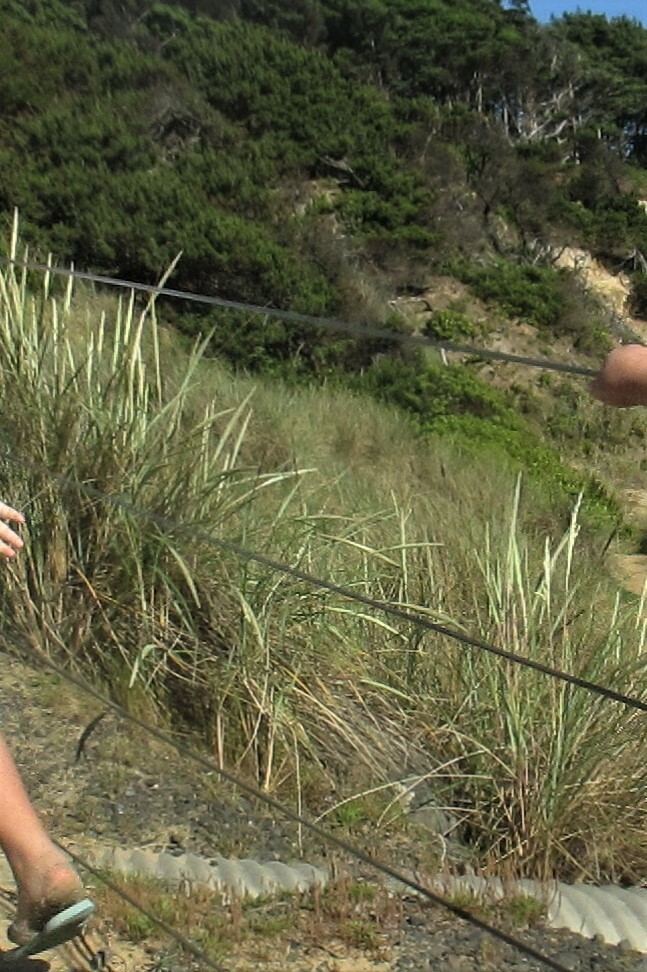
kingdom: Plantae
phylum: Tracheophyta
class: Liliopsida
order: Poales
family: Poaceae
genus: Calamagrostis
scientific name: Calamagrostis arenaria
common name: European beachgrass
